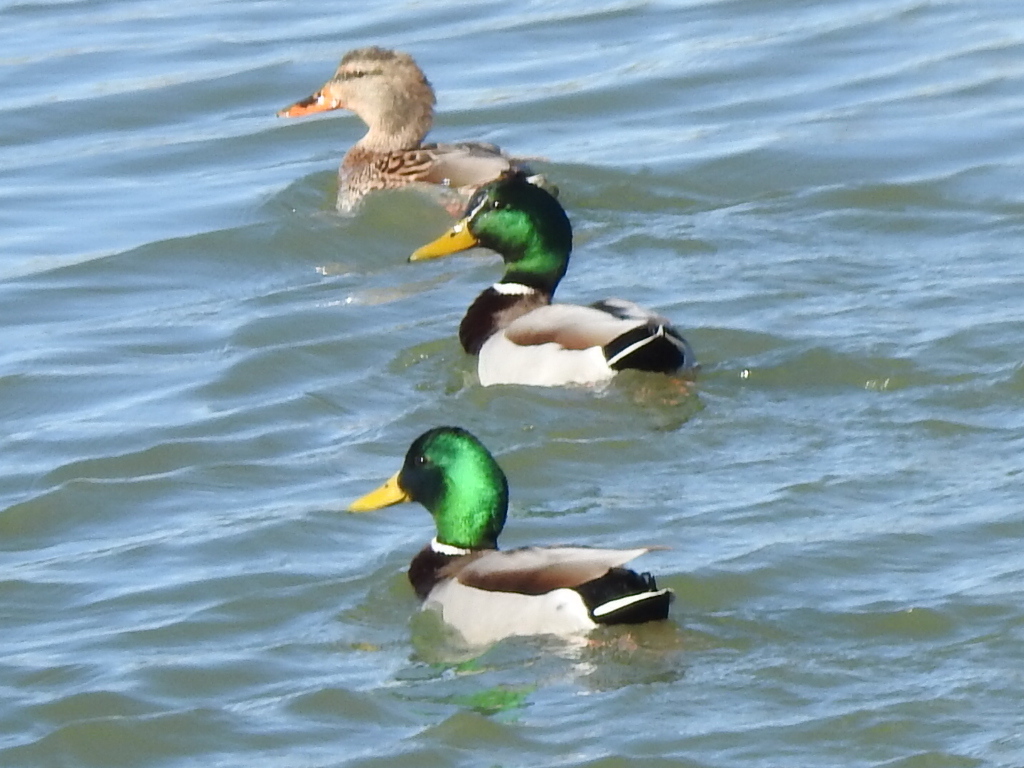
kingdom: Animalia
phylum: Chordata
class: Aves
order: Anseriformes
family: Anatidae
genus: Anas
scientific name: Anas platyrhynchos
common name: Mallard
